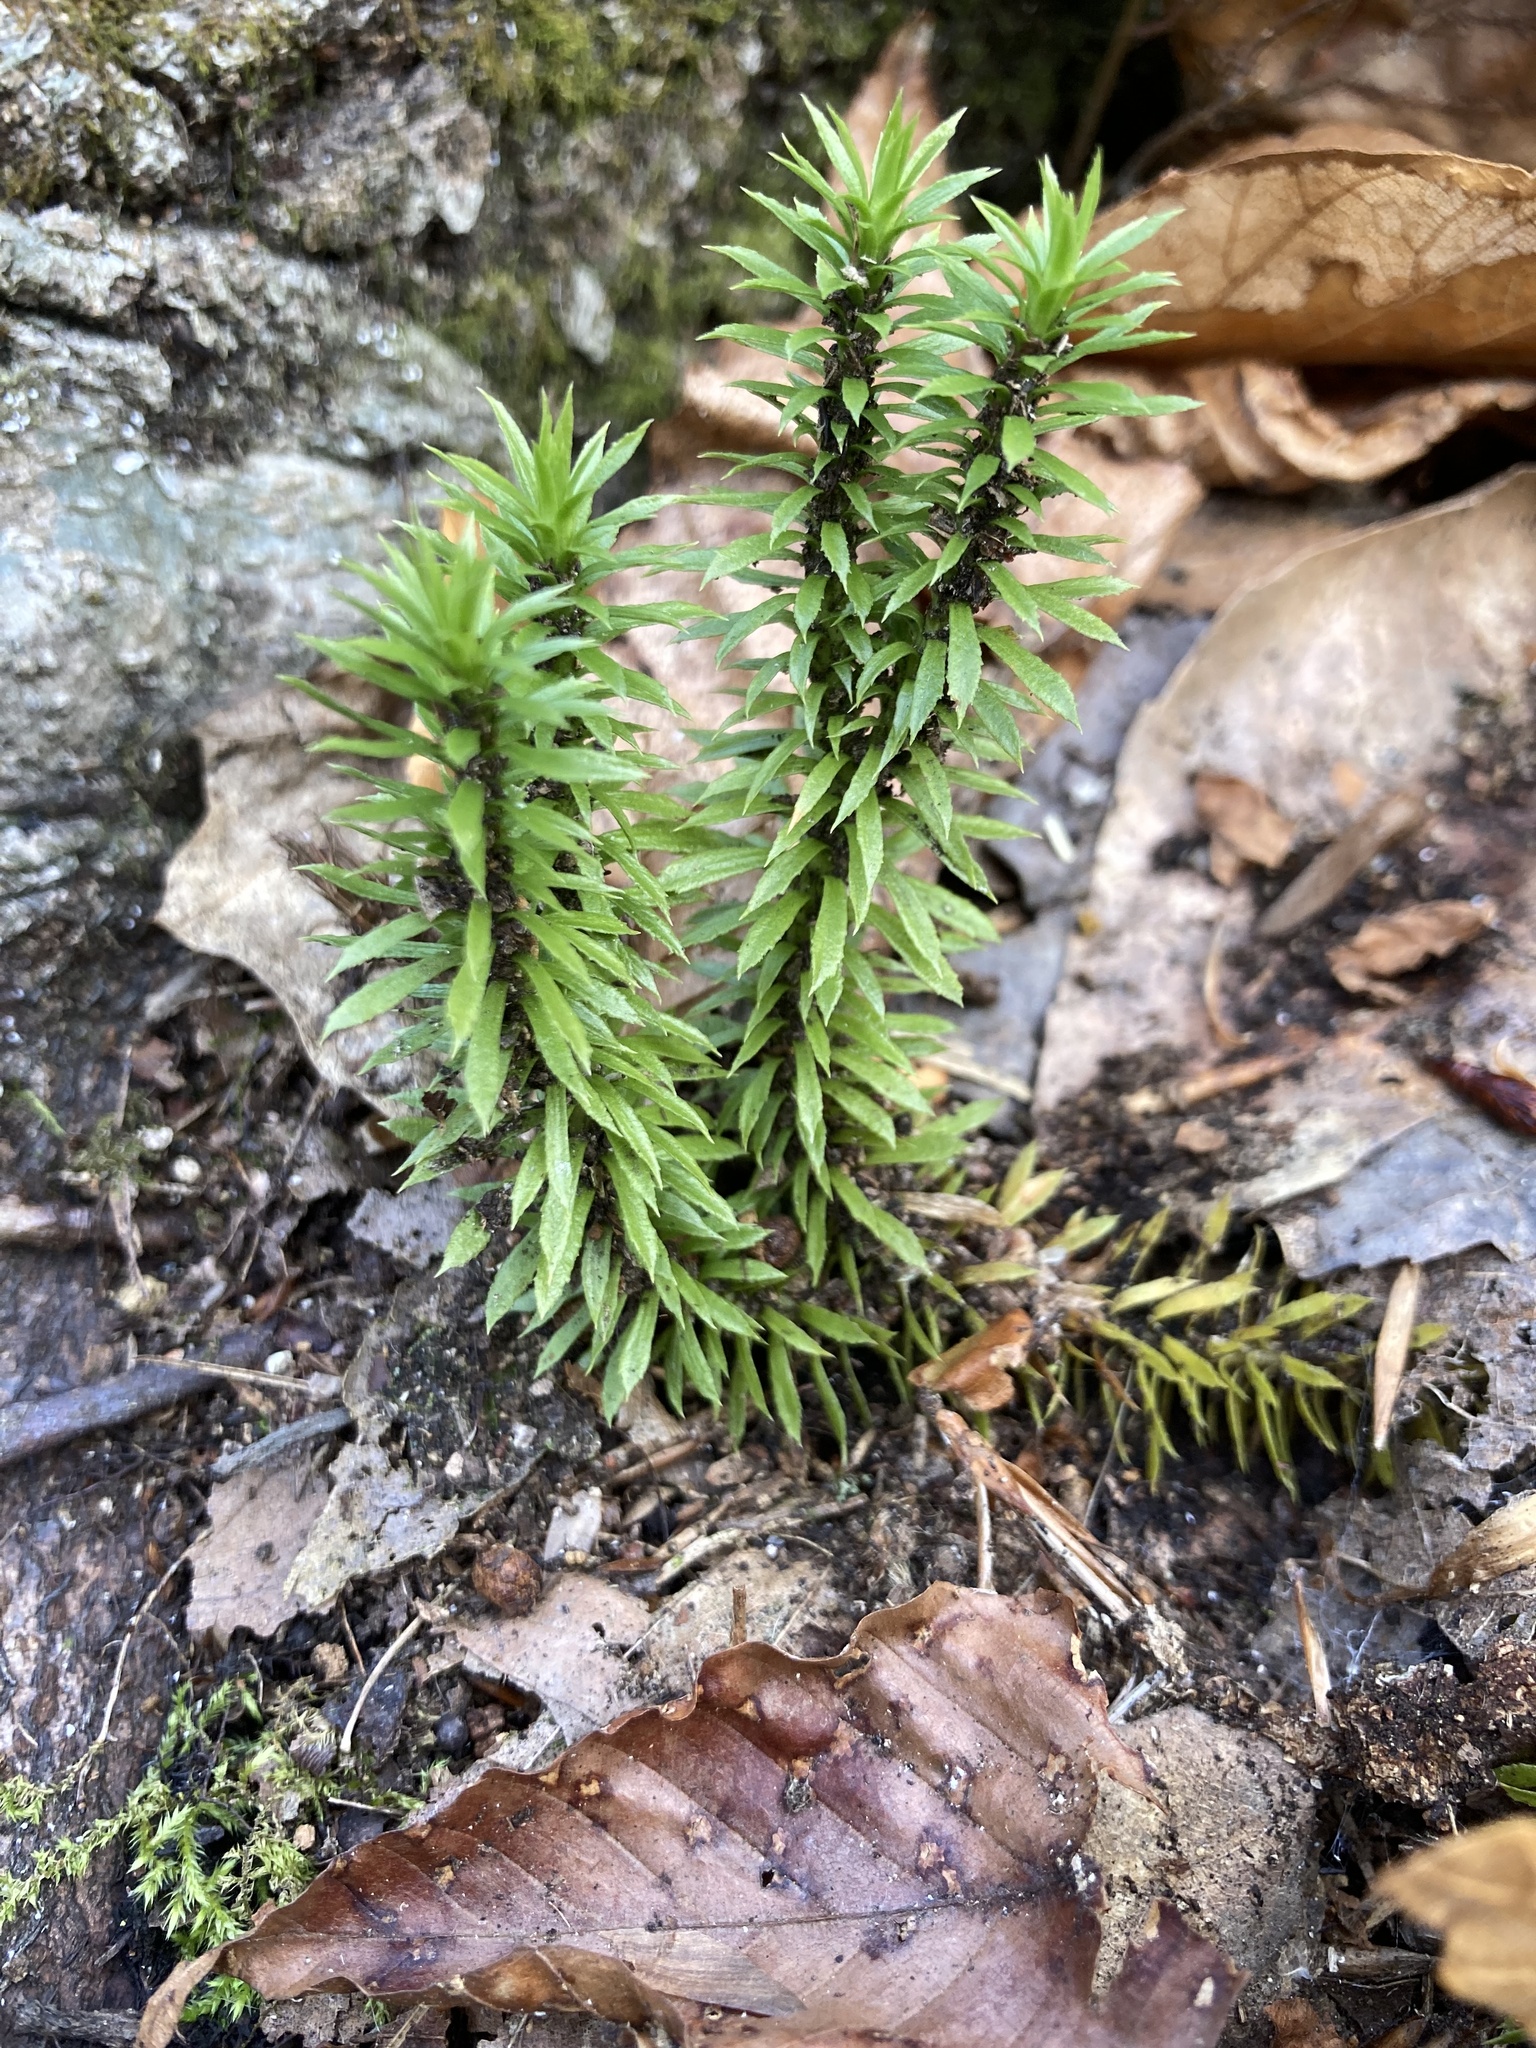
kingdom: Plantae
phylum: Tracheophyta
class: Lycopodiopsida
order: Lycopodiales
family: Lycopodiaceae
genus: Huperzia
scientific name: Huperzia lucidula
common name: Shining clubmoss
